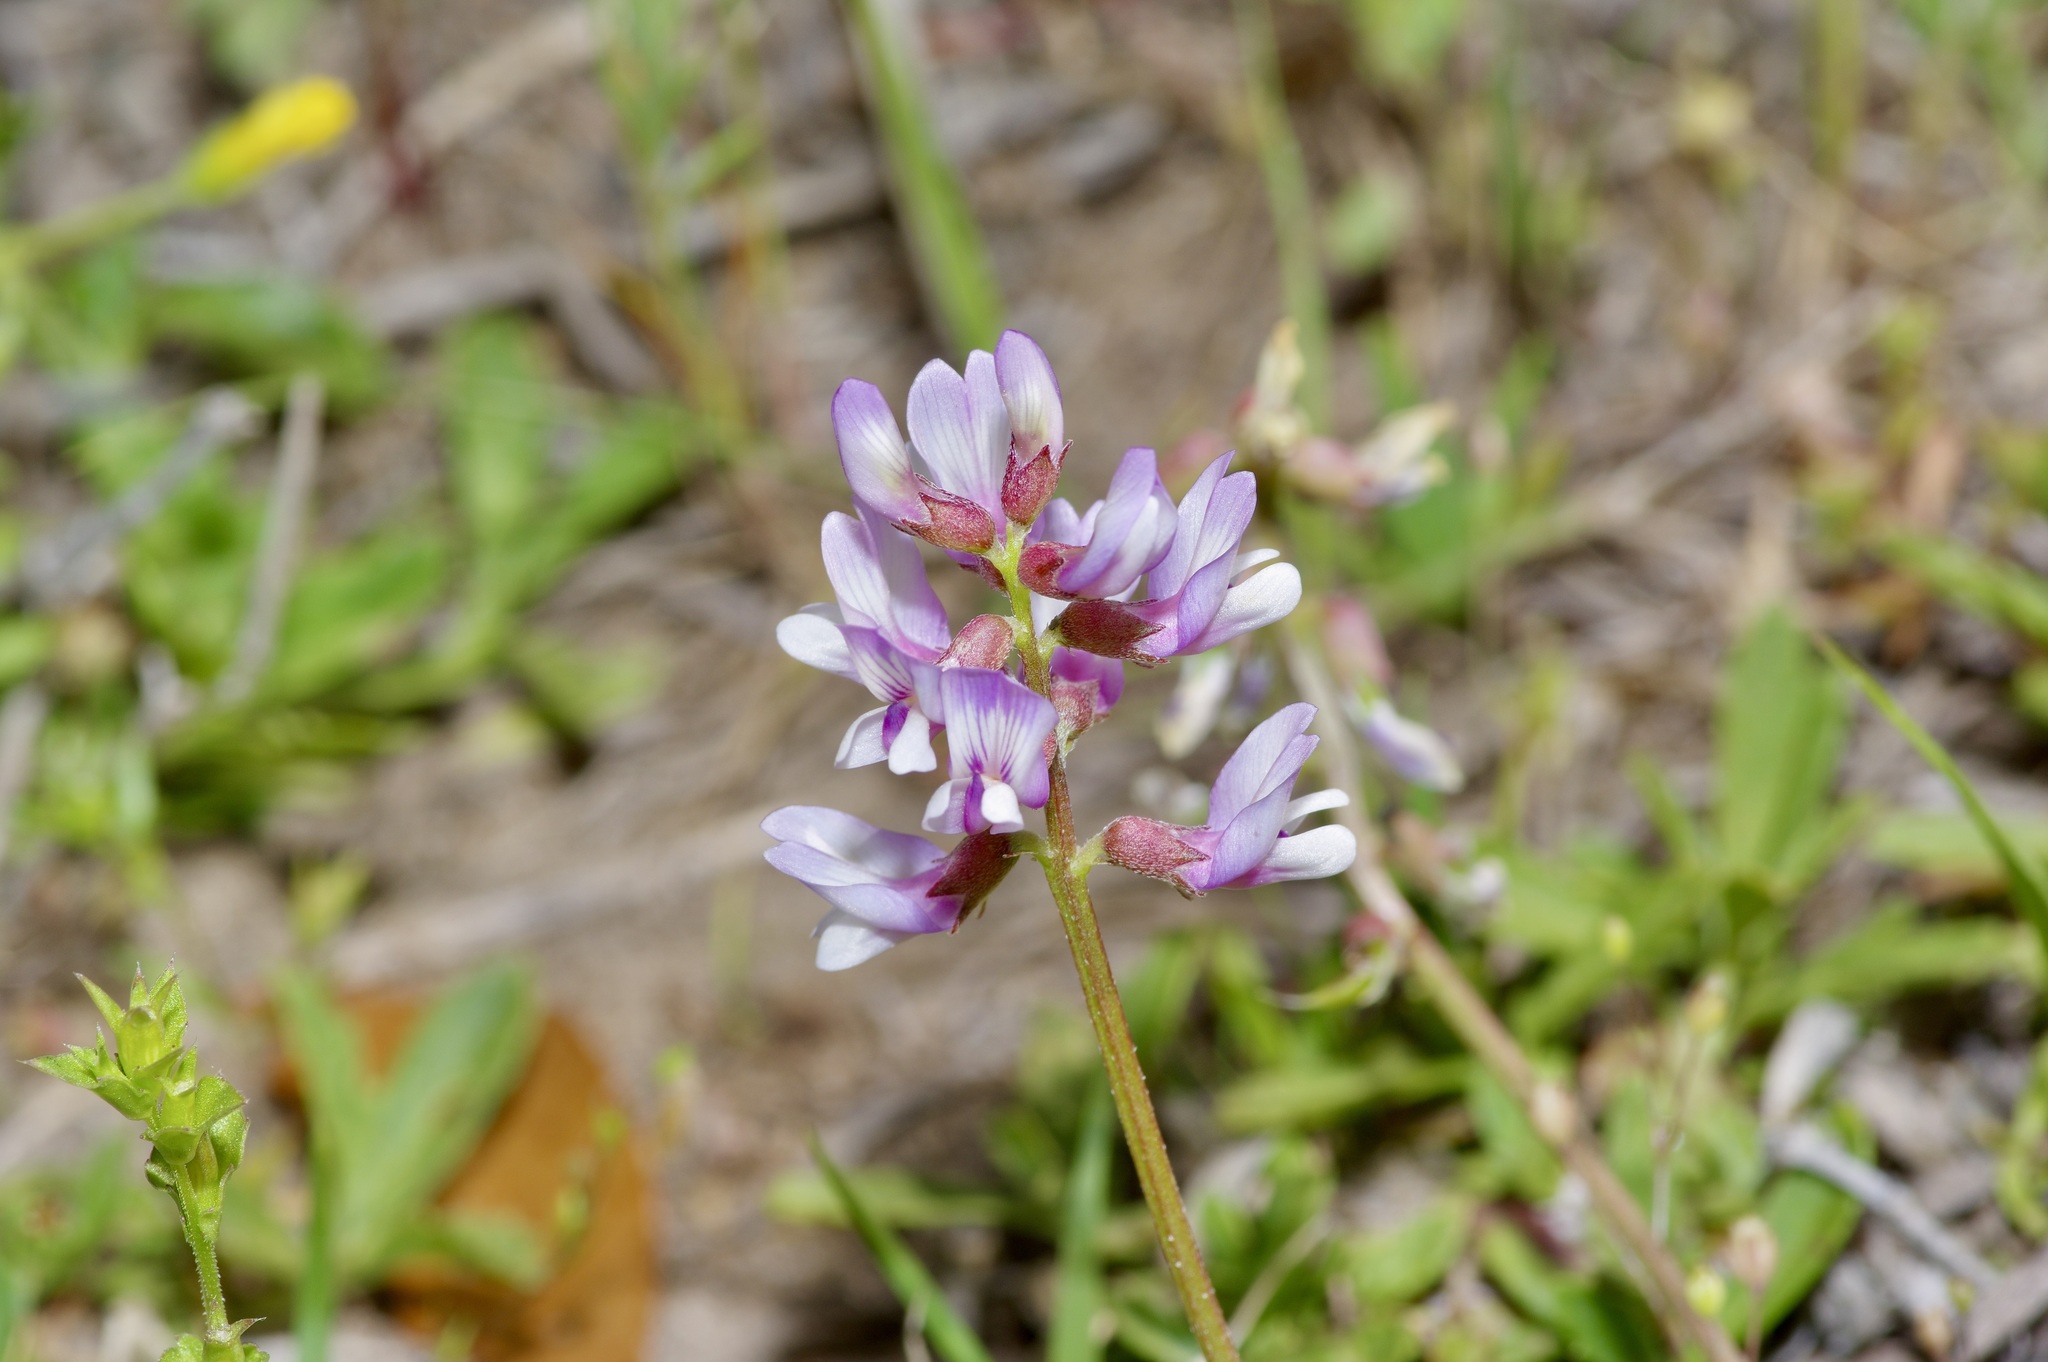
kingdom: Plantae
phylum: Tracheophyta
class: Magnoliopsida
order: Fabales
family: Fabaceae
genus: Astragalus
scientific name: Astragalus distortus
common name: Ozark milk-vetch
